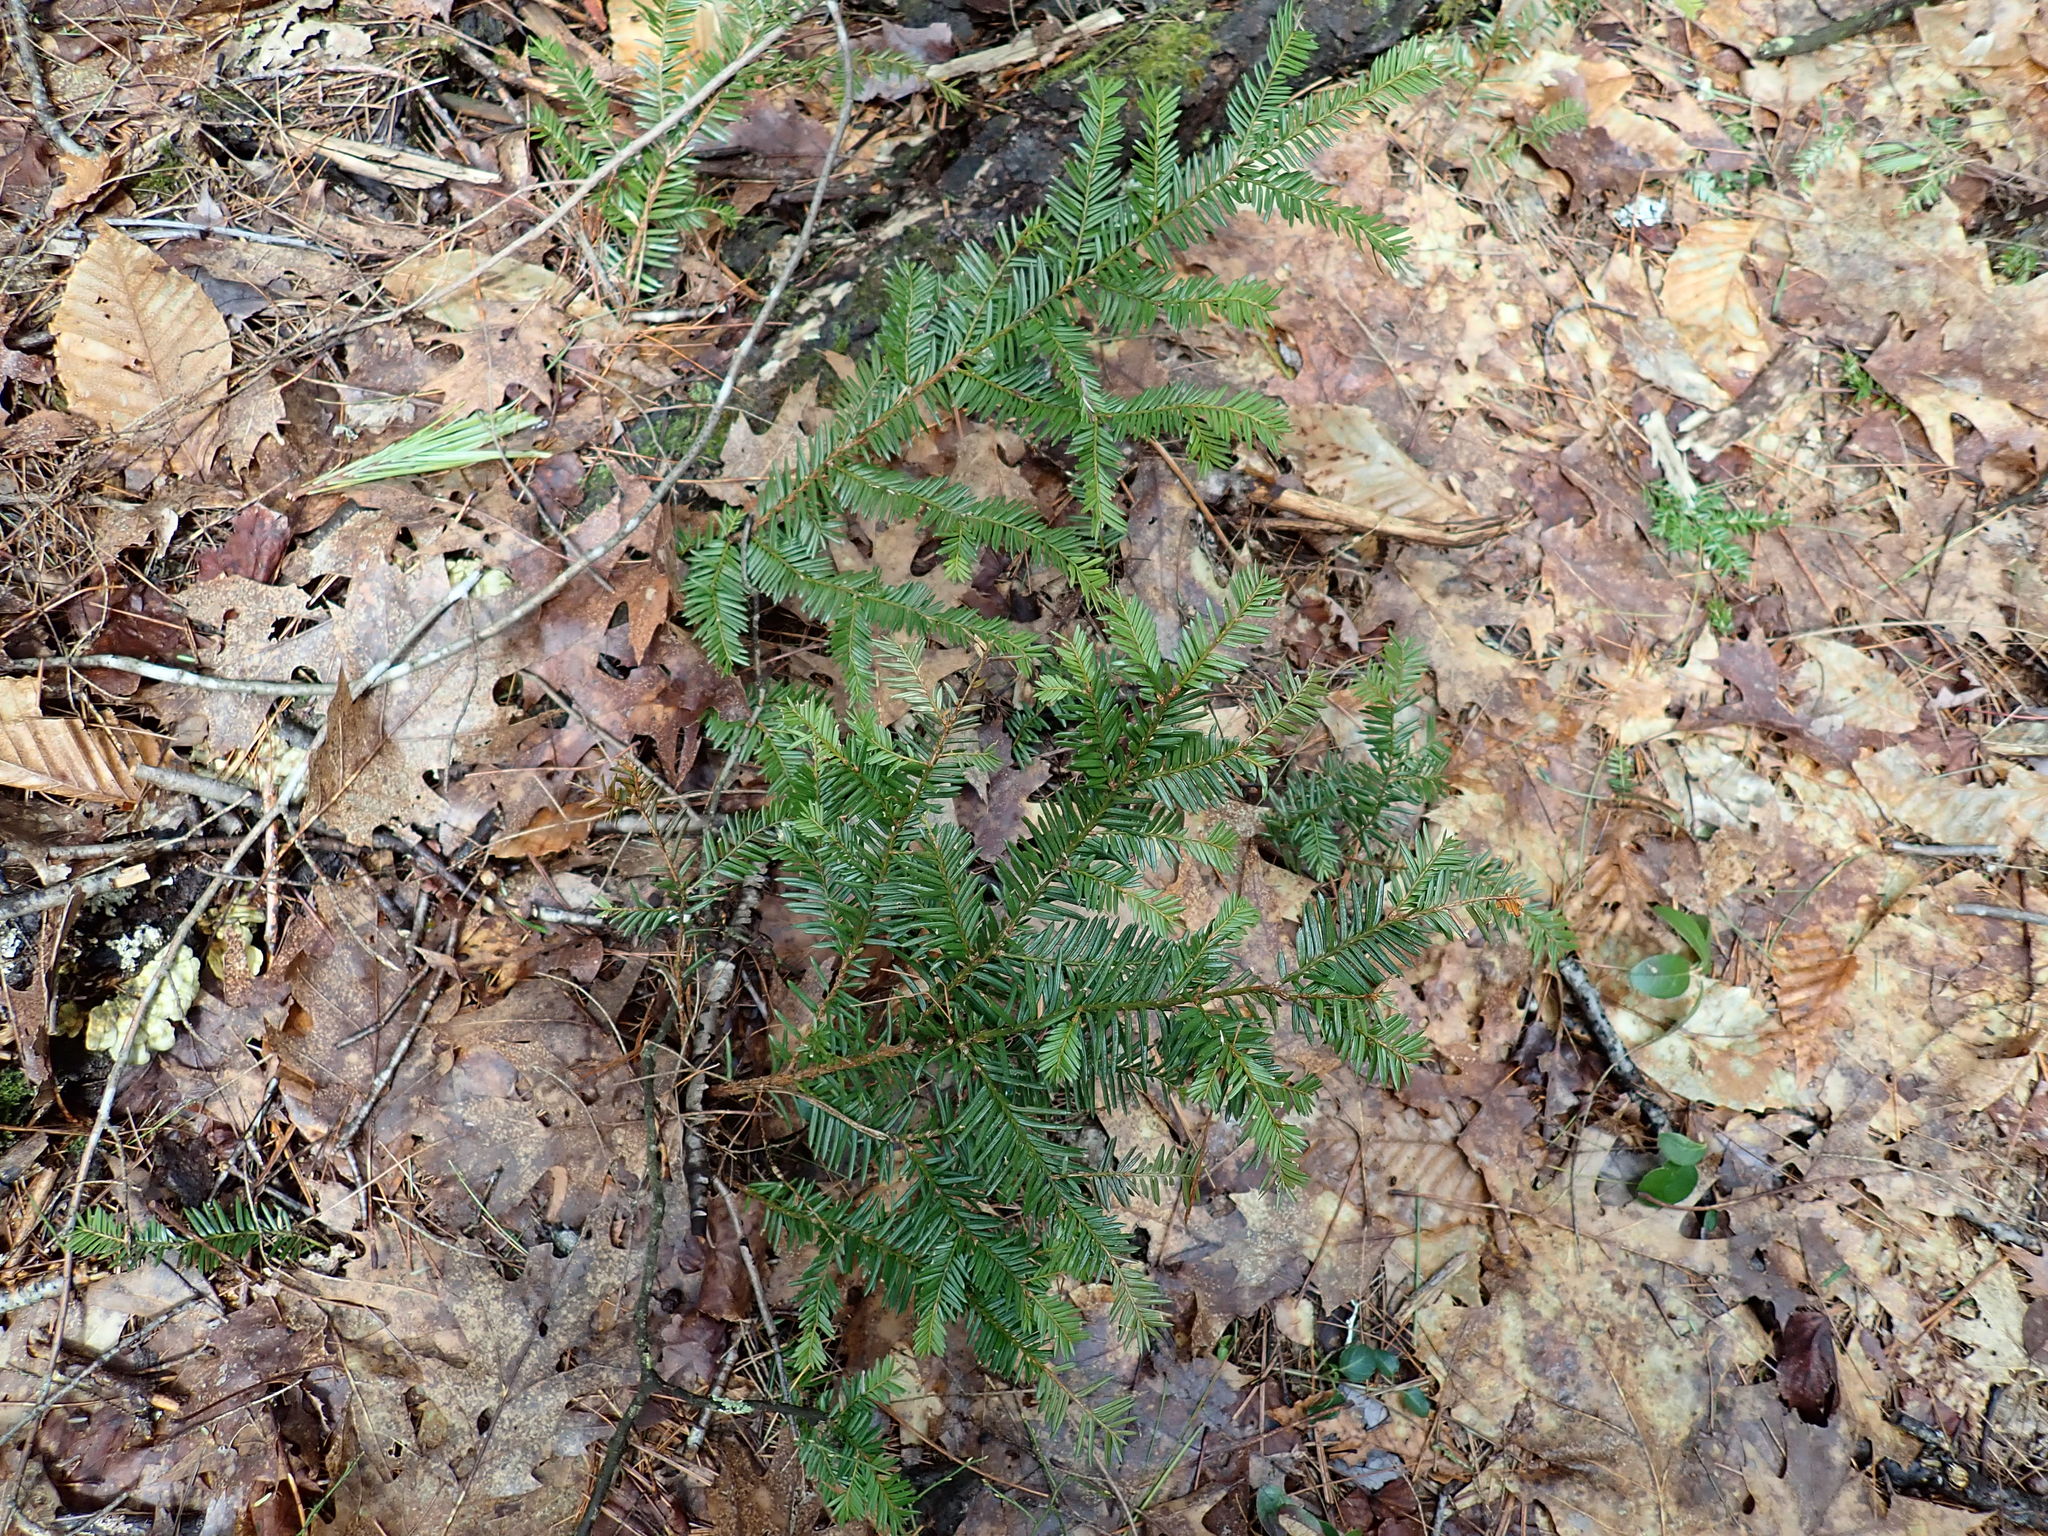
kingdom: Plantae
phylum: Tracheophyta
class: Pinopsida
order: Pinales
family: Taxaceae
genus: Taxus
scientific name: Taxus canadensis
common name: American yew
